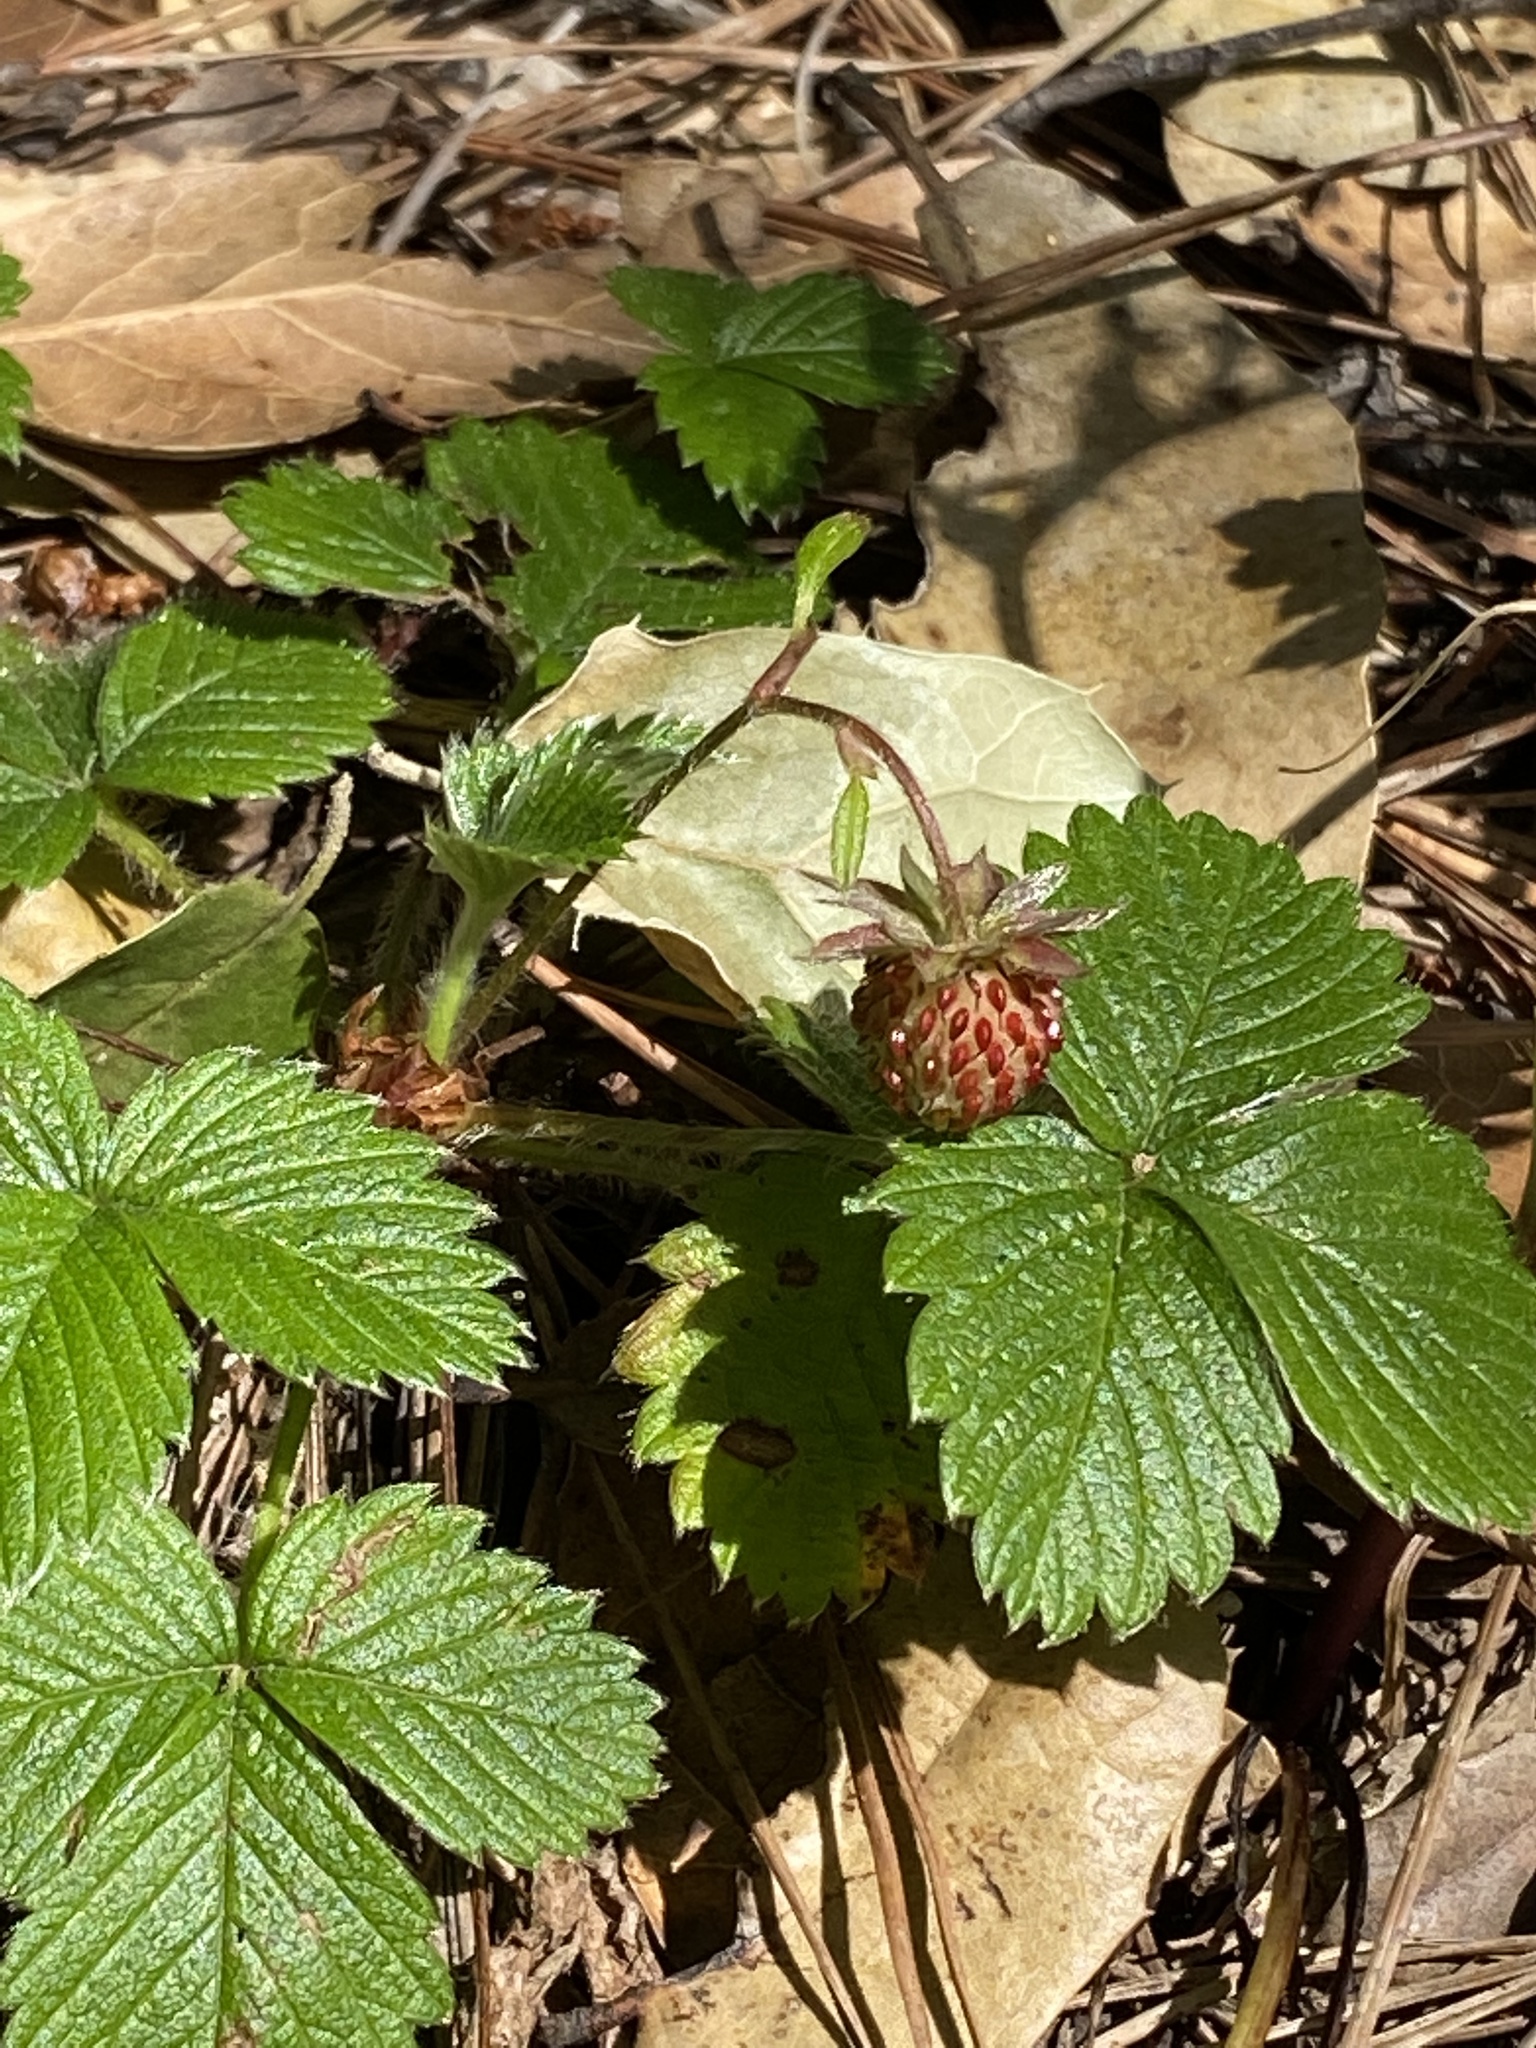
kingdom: Plantae
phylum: Tracheophyta
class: Magnoliopsida
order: Rosales
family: Rosaceae
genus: Fragaria
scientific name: Fragaria vesca
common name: Wild strawberry
